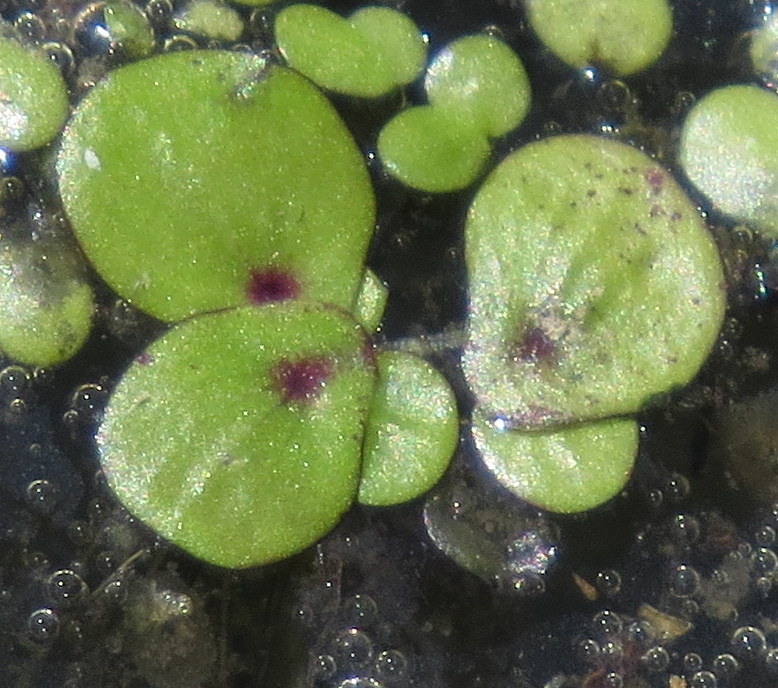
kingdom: Plantae
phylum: Tracheophyta
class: Liliopsida
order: Alismatales
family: Araceae
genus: Spirodela
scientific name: Spirodela polyrhiza
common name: Great duckweed
